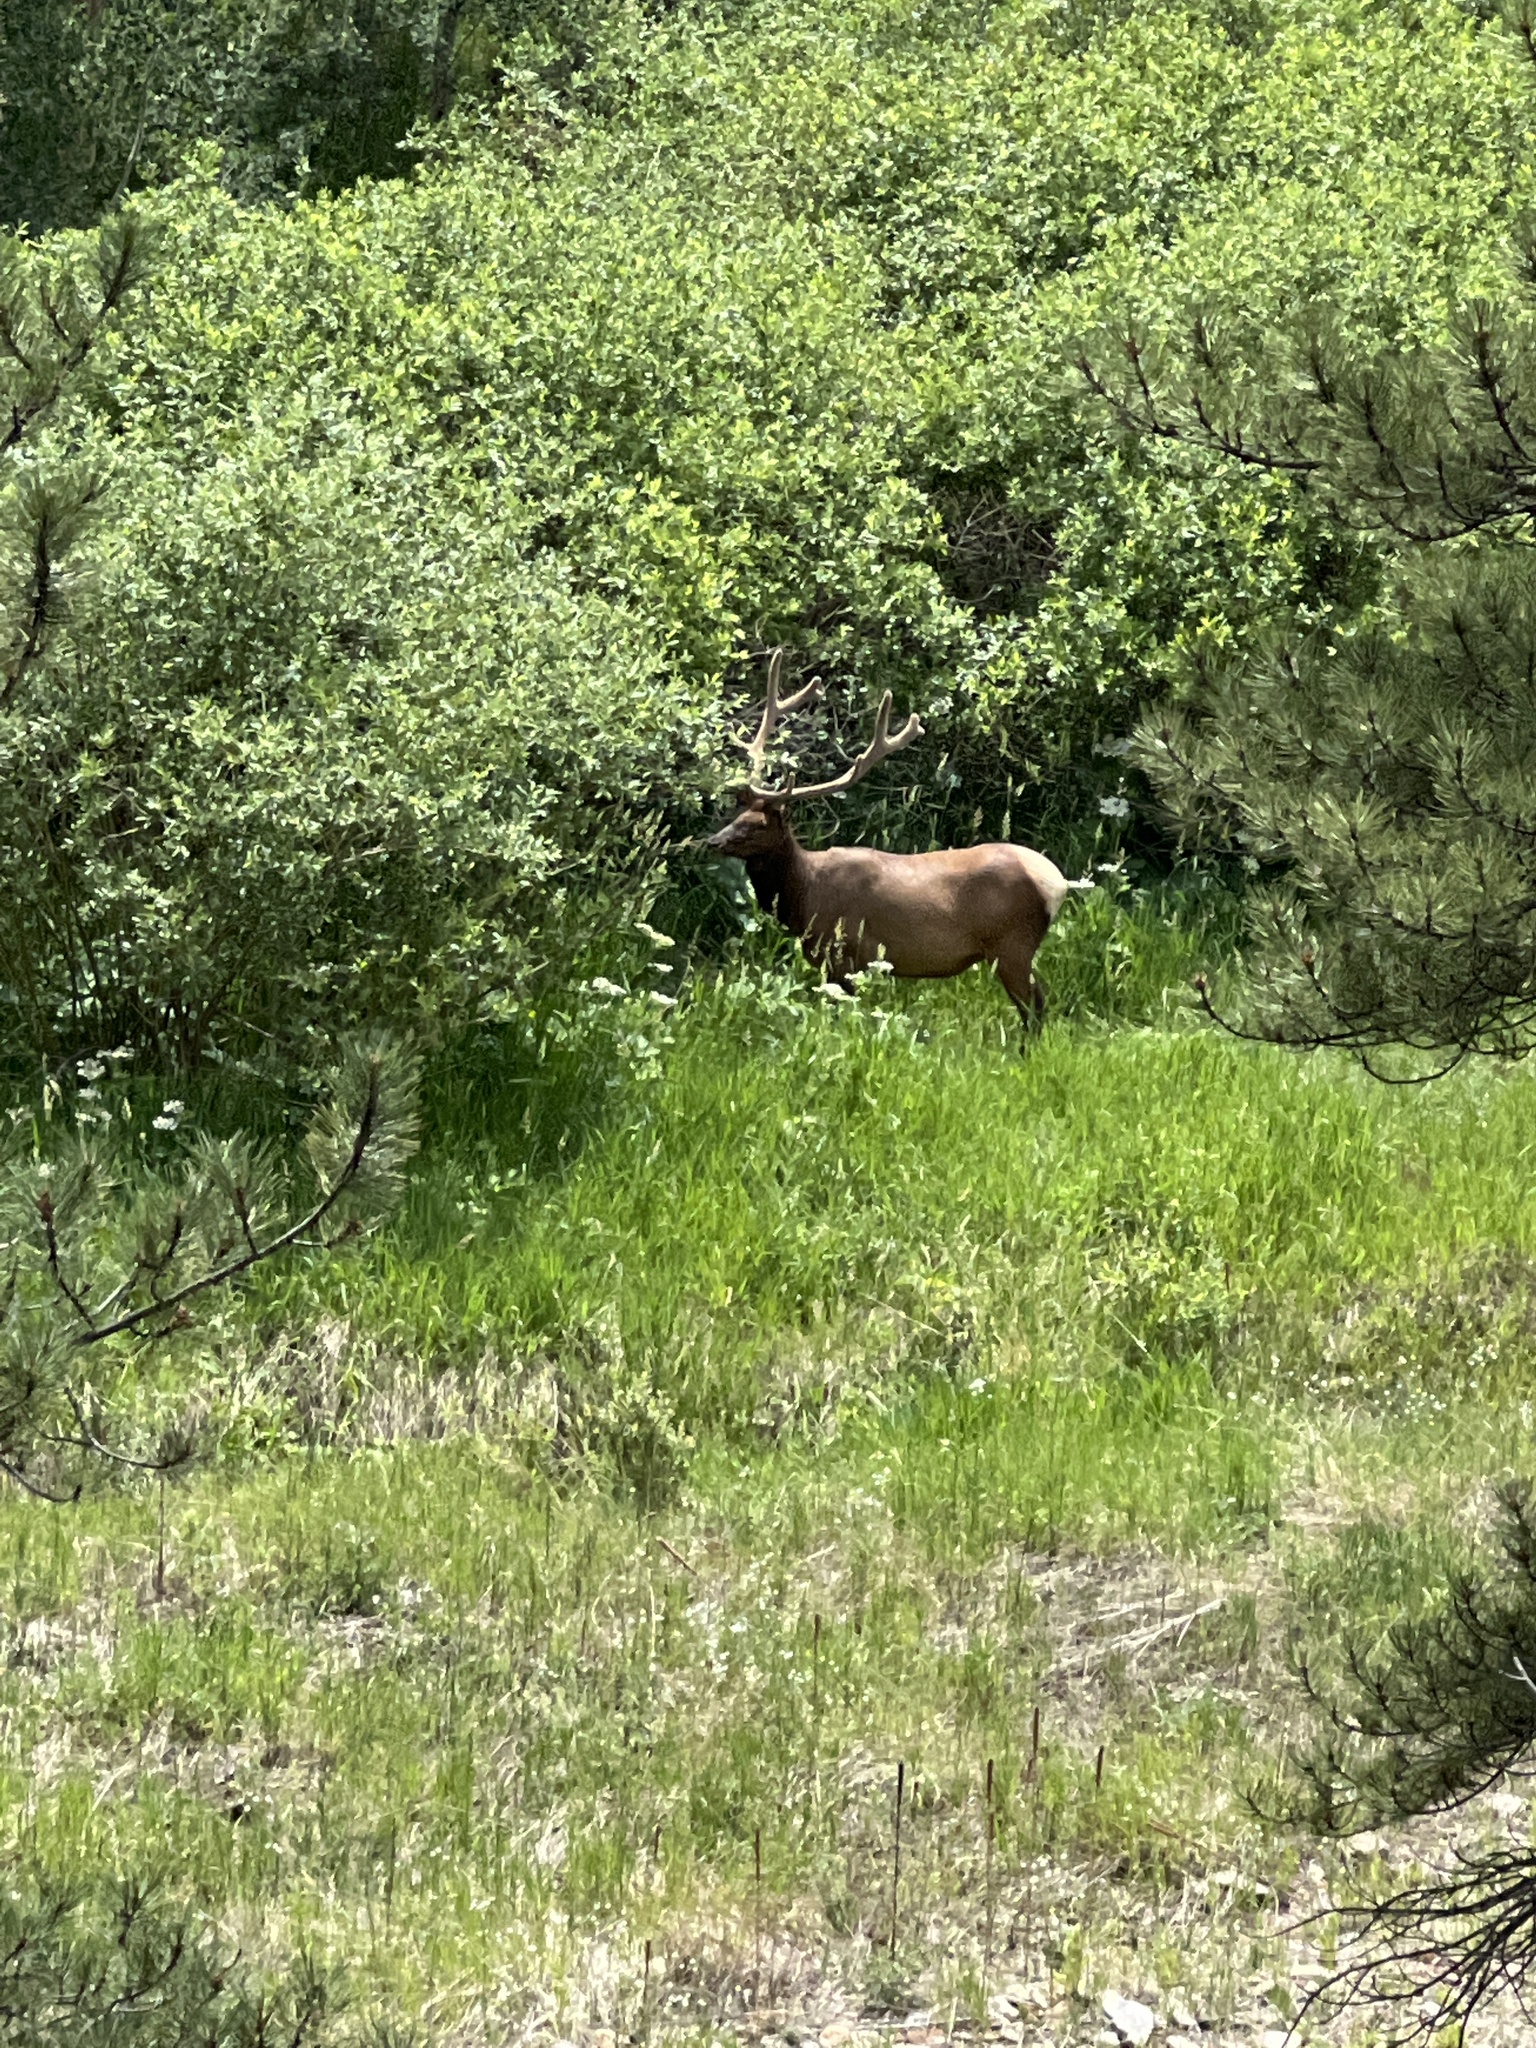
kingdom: Animalia
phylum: Chordata
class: Mammalia
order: Artiodactyla
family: Cervidae
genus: Cervus
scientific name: Cervus elaphus
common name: Red deer
